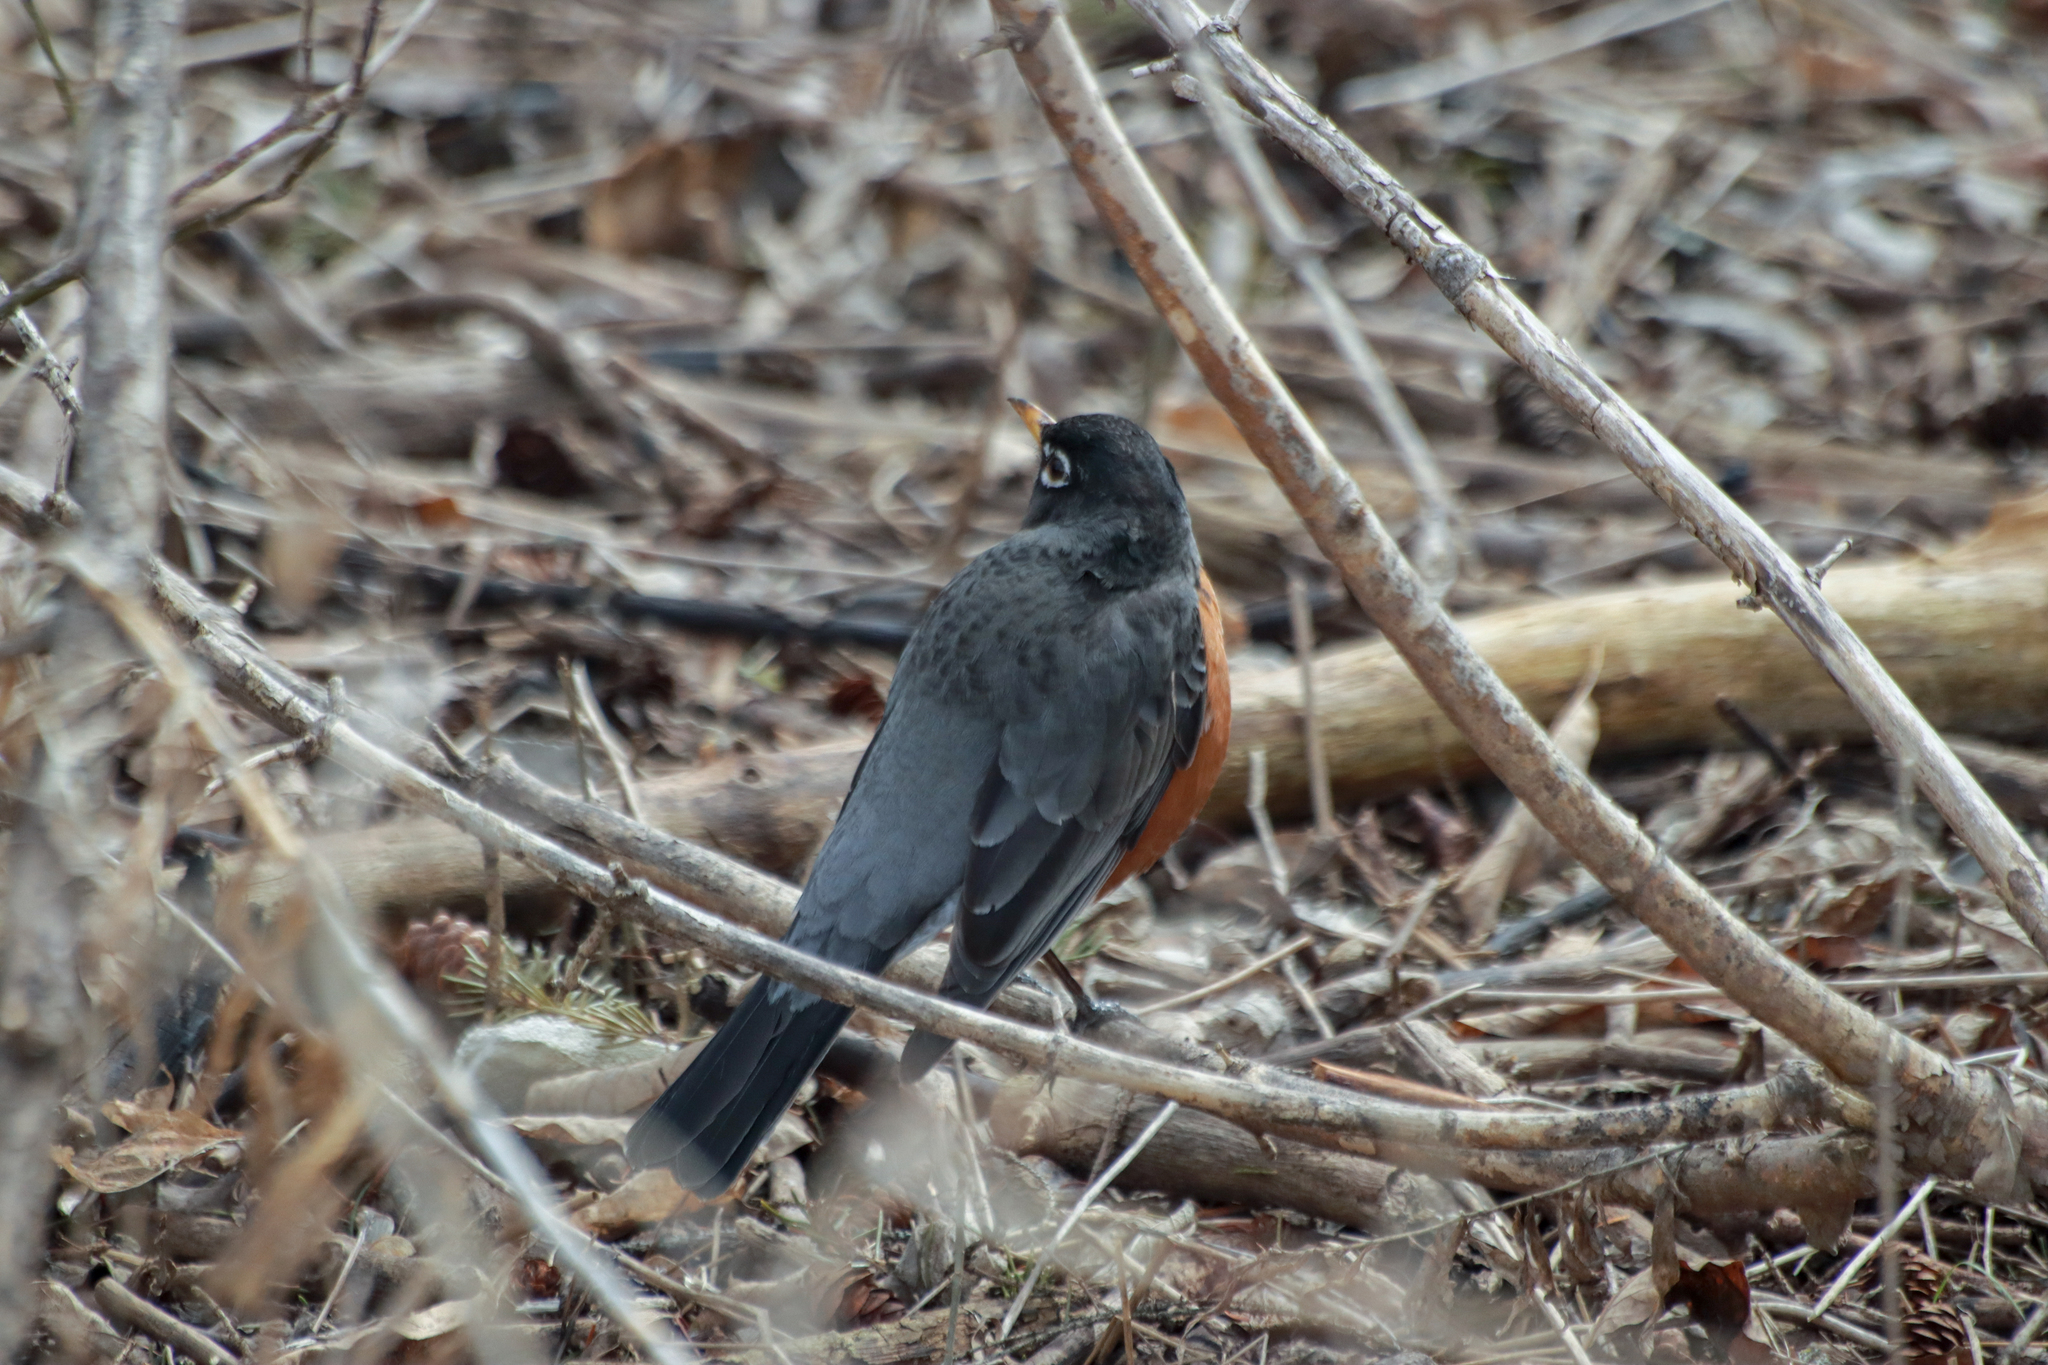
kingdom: Animalia
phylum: Chordata
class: Aves
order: Passeriformes
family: Turdidae
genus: Turdus
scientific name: Turdus migratorius
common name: American robin
